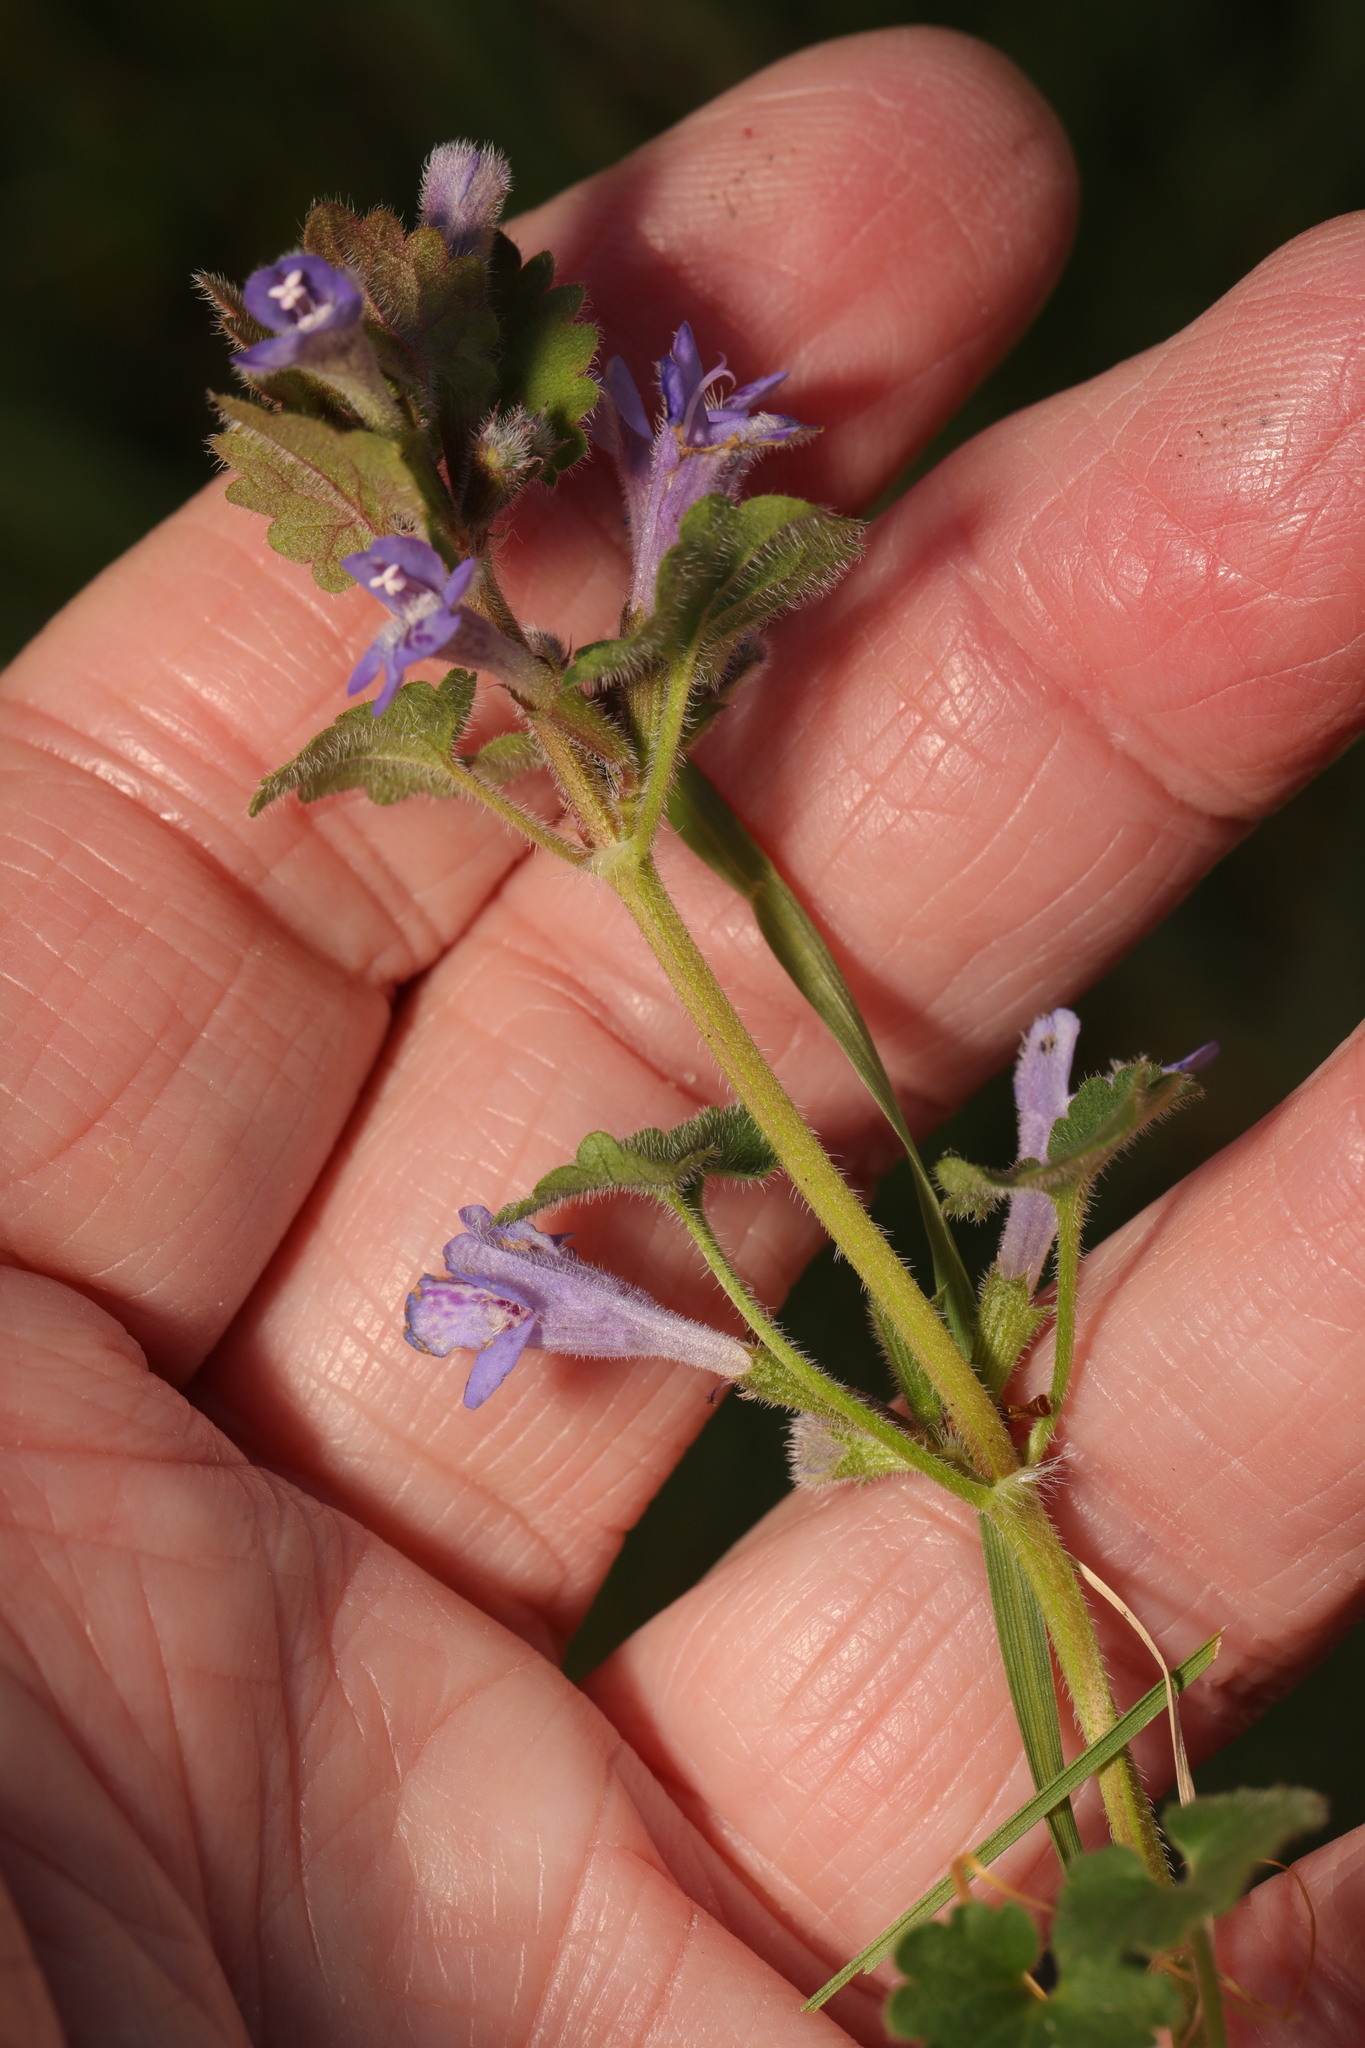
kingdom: Plantae
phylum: Tracheophyta
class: Magnoliopsida
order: Lamiales
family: Lamiaceae
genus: Glechoma
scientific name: Glechoma hederacea
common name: Ground ivy
